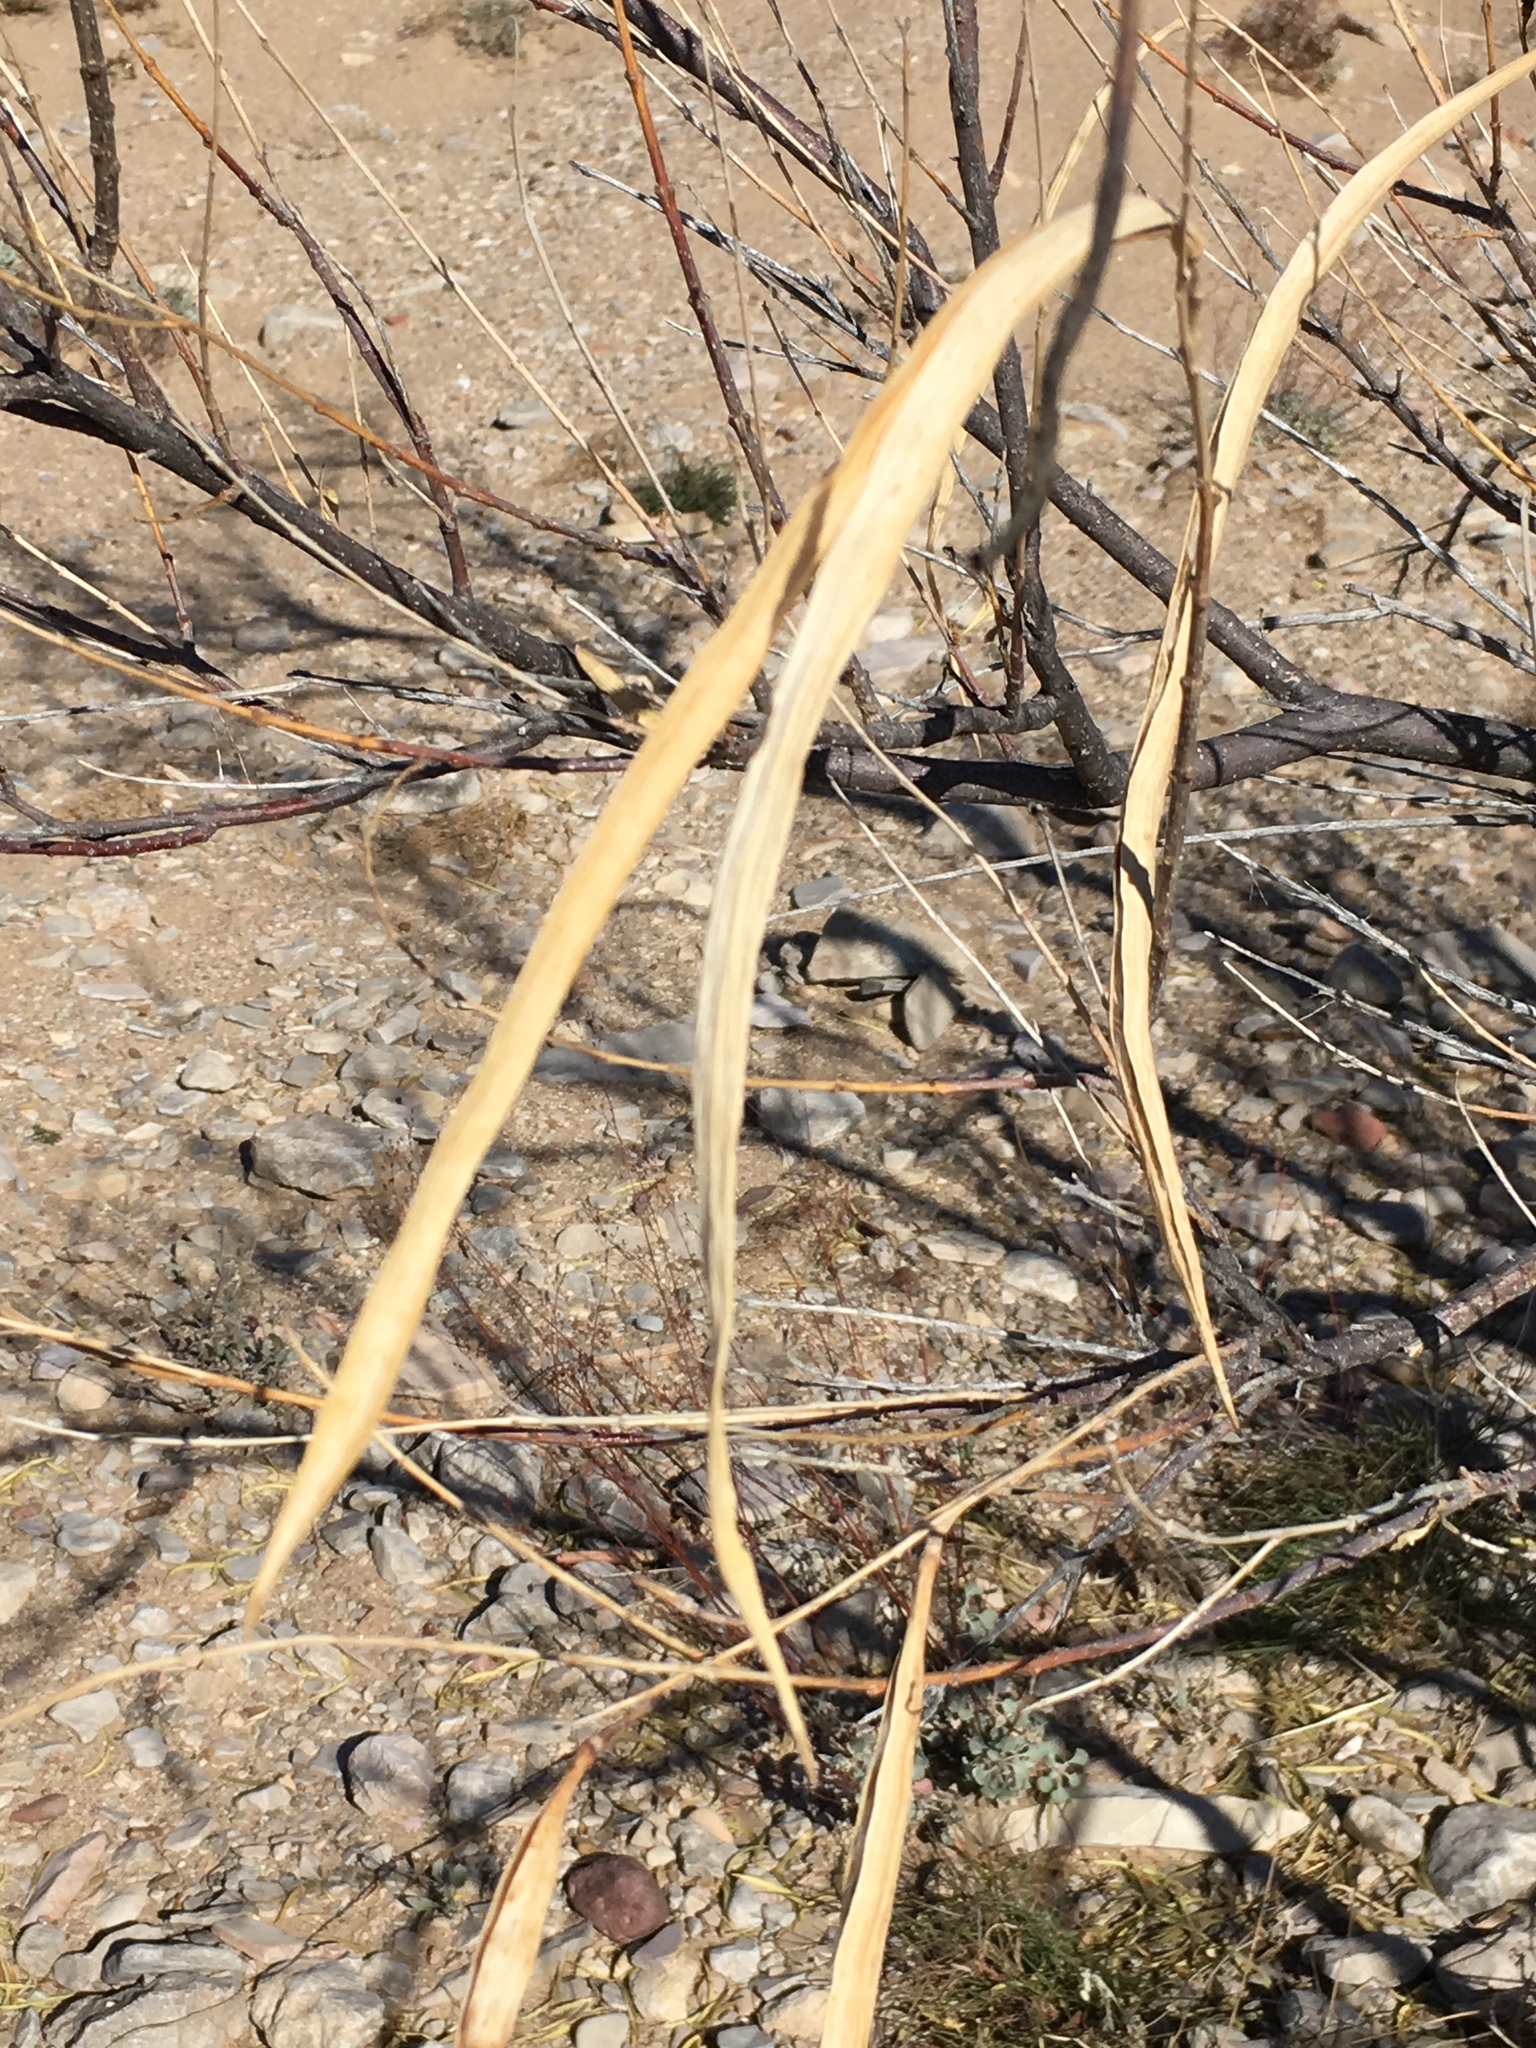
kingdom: Plantae
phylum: Tracheophyta
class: Magnoliopsida
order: Lamiales
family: Bignoniaceae
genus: Chilopsis
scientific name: Chilopsis linearis
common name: Desert-willow
